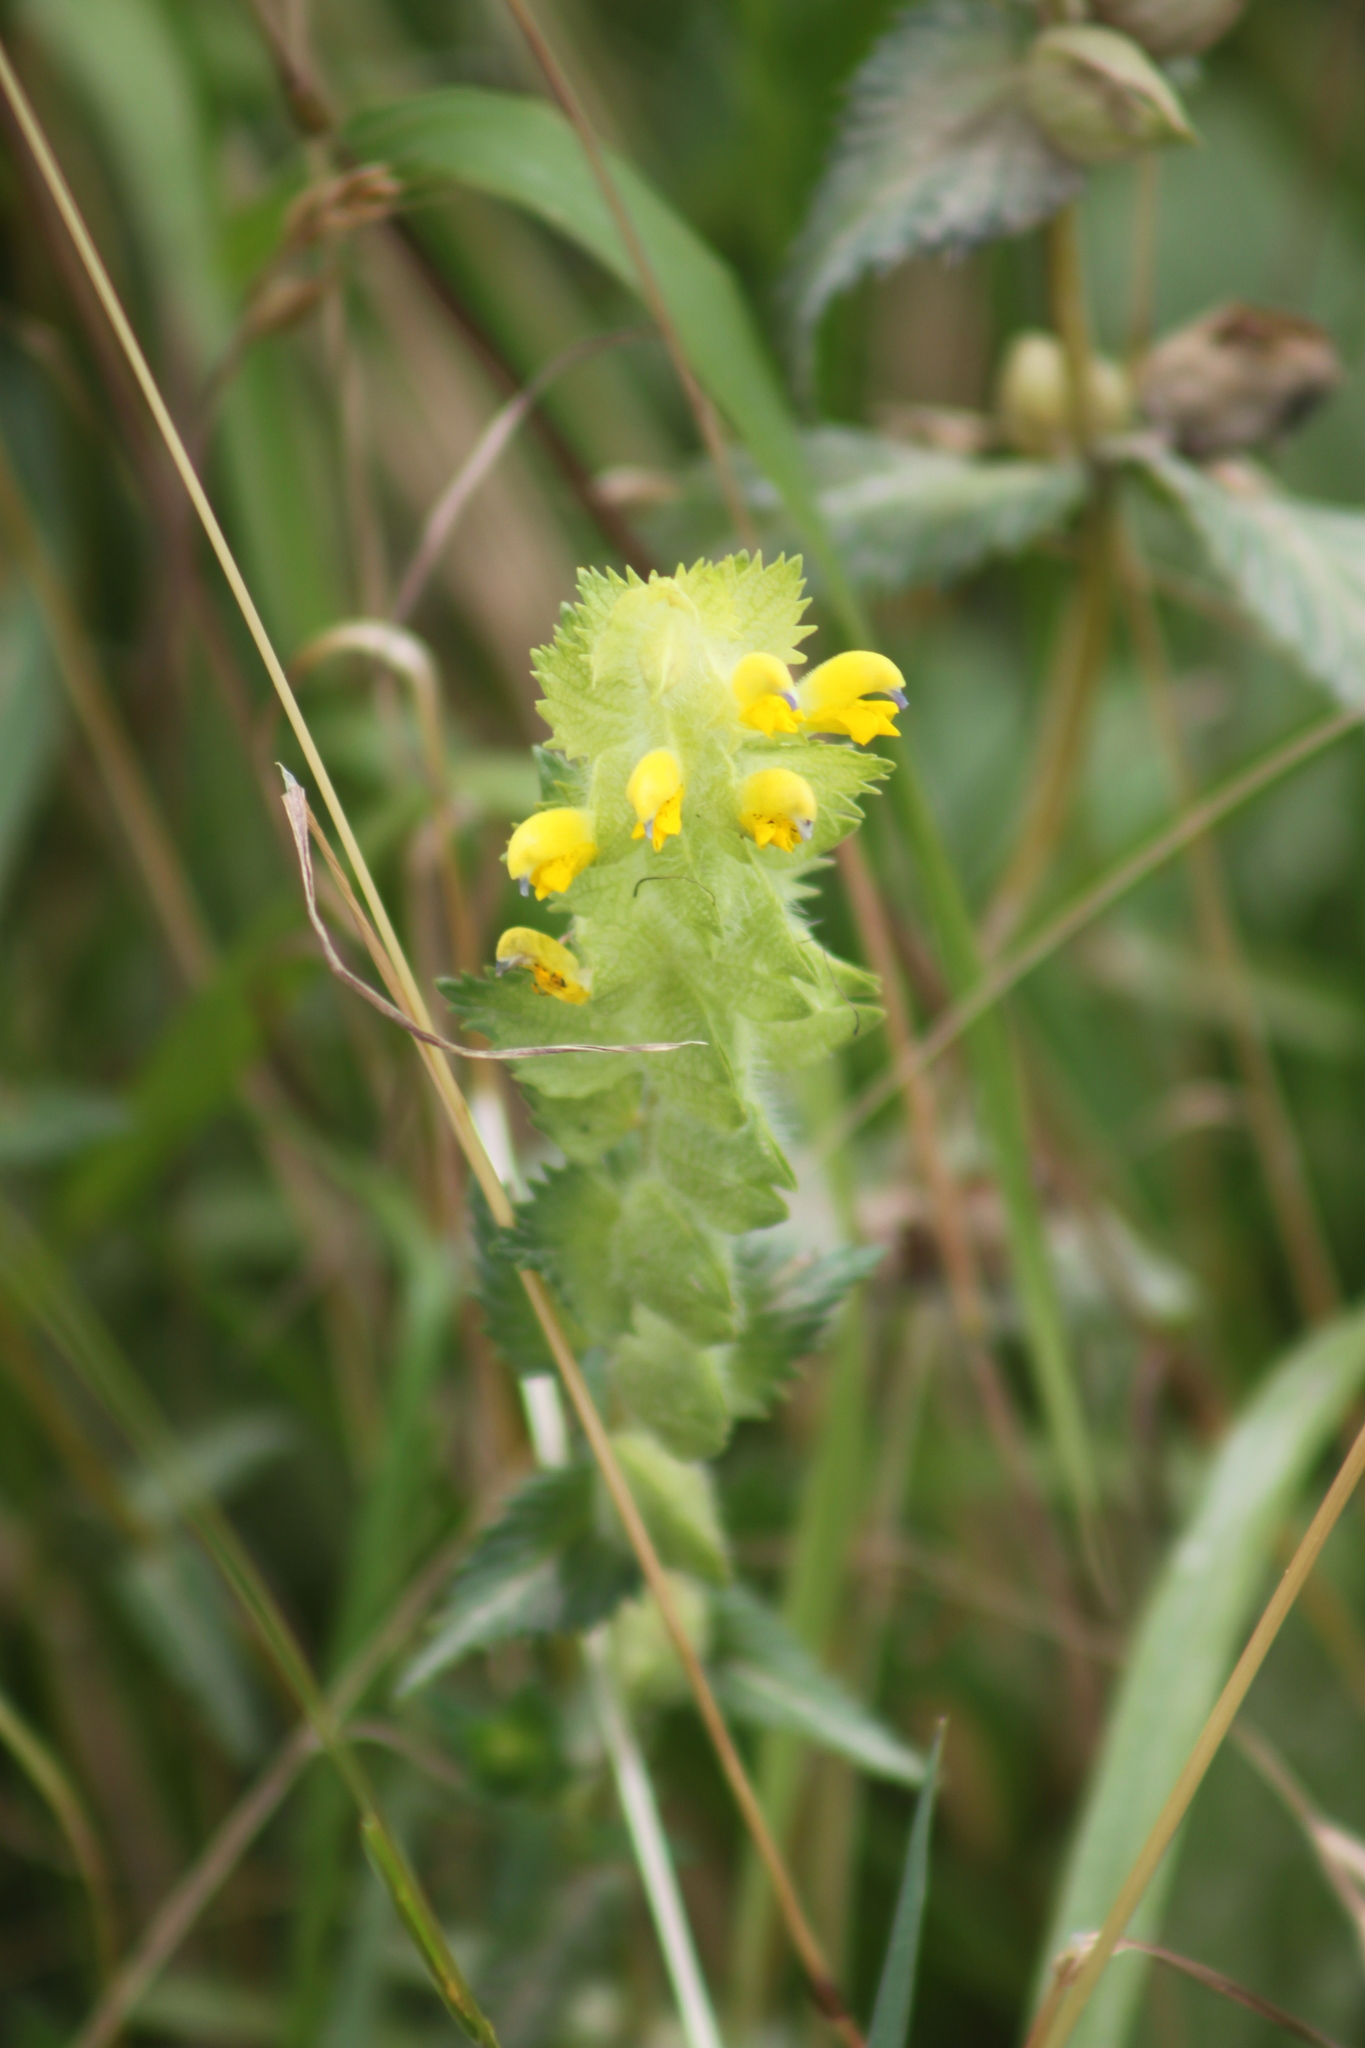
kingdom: Plantae
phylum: Tracheophyta
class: Magnoliopsida
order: Lamiales
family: Orobanchaceae
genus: Rhinanthus
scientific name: Rhinanthus alectorolophus
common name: Greater yellow-rattle
